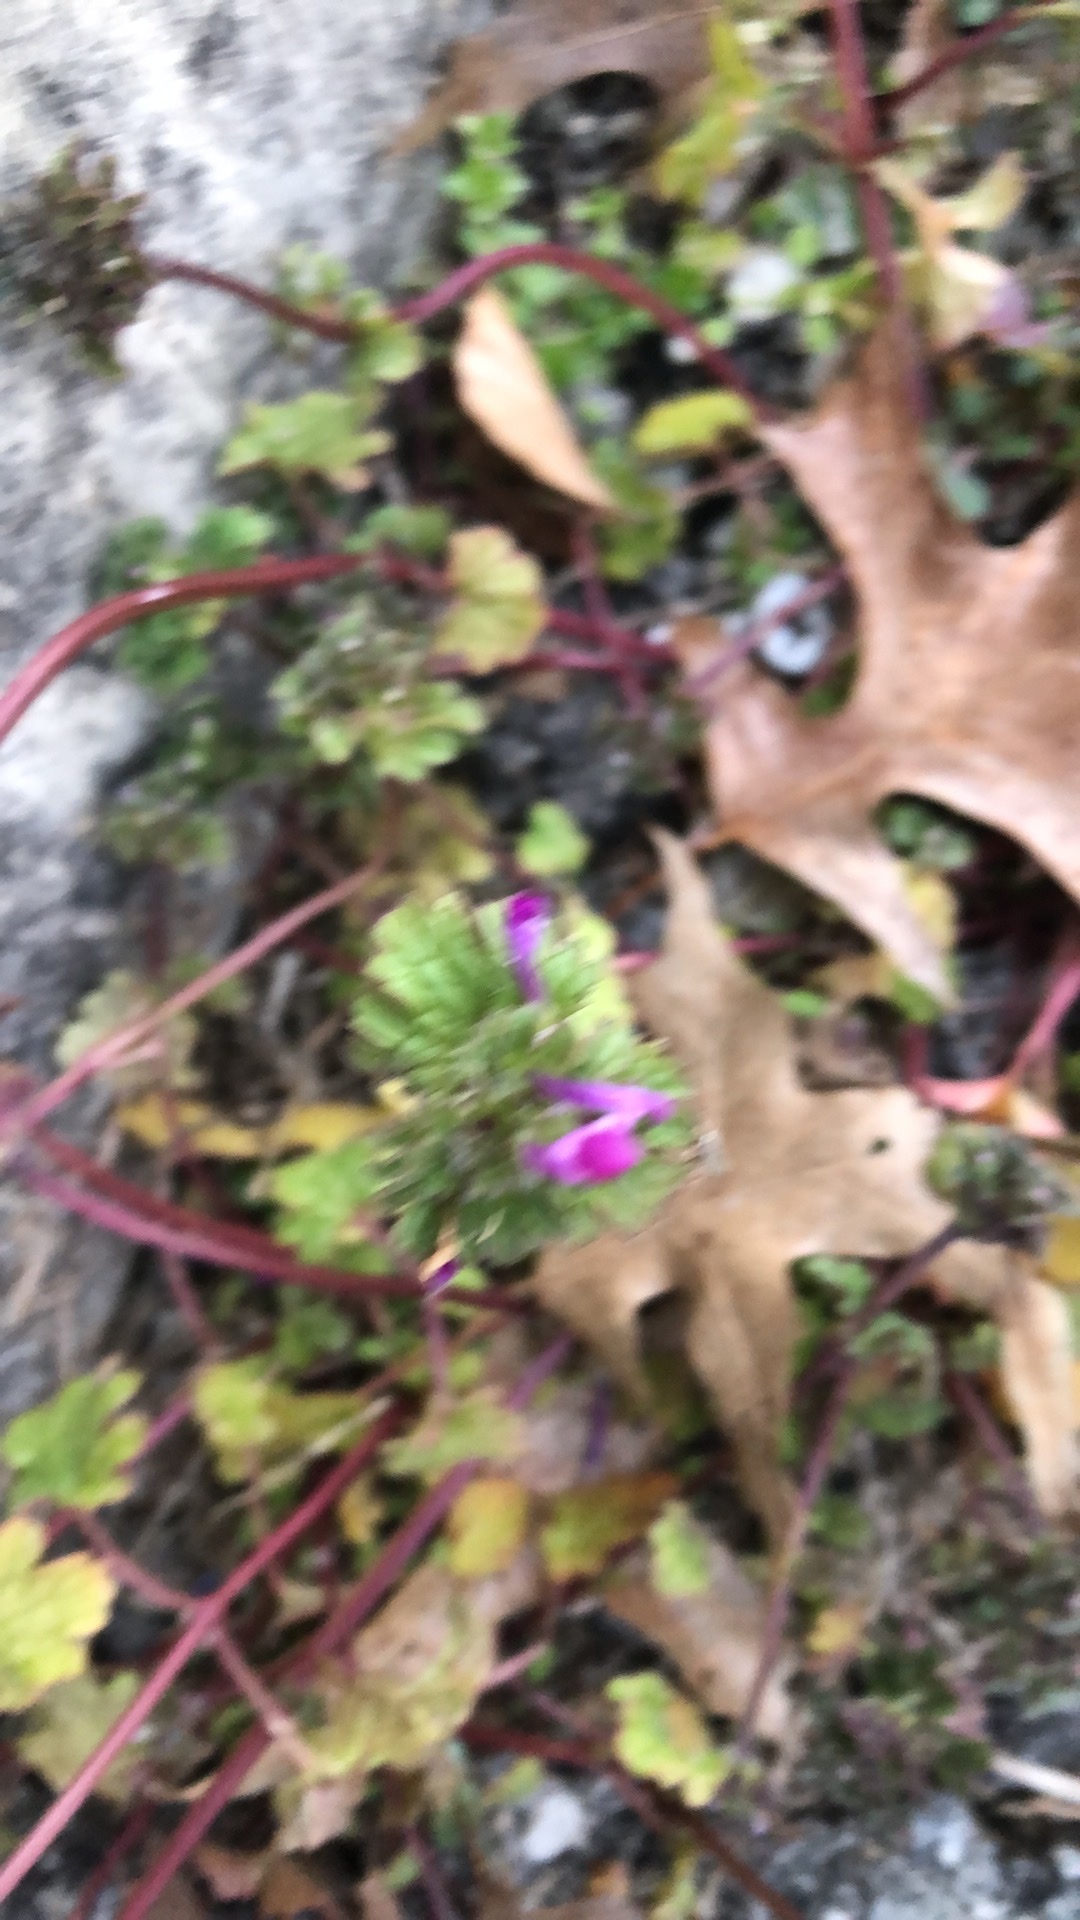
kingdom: Plantae
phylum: Tracheophyta
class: Magnoliopsida
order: Lamiales
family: Lamiaceae
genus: Lamium
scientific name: Lamium amplexicaule
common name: Henbit dead-nettle
